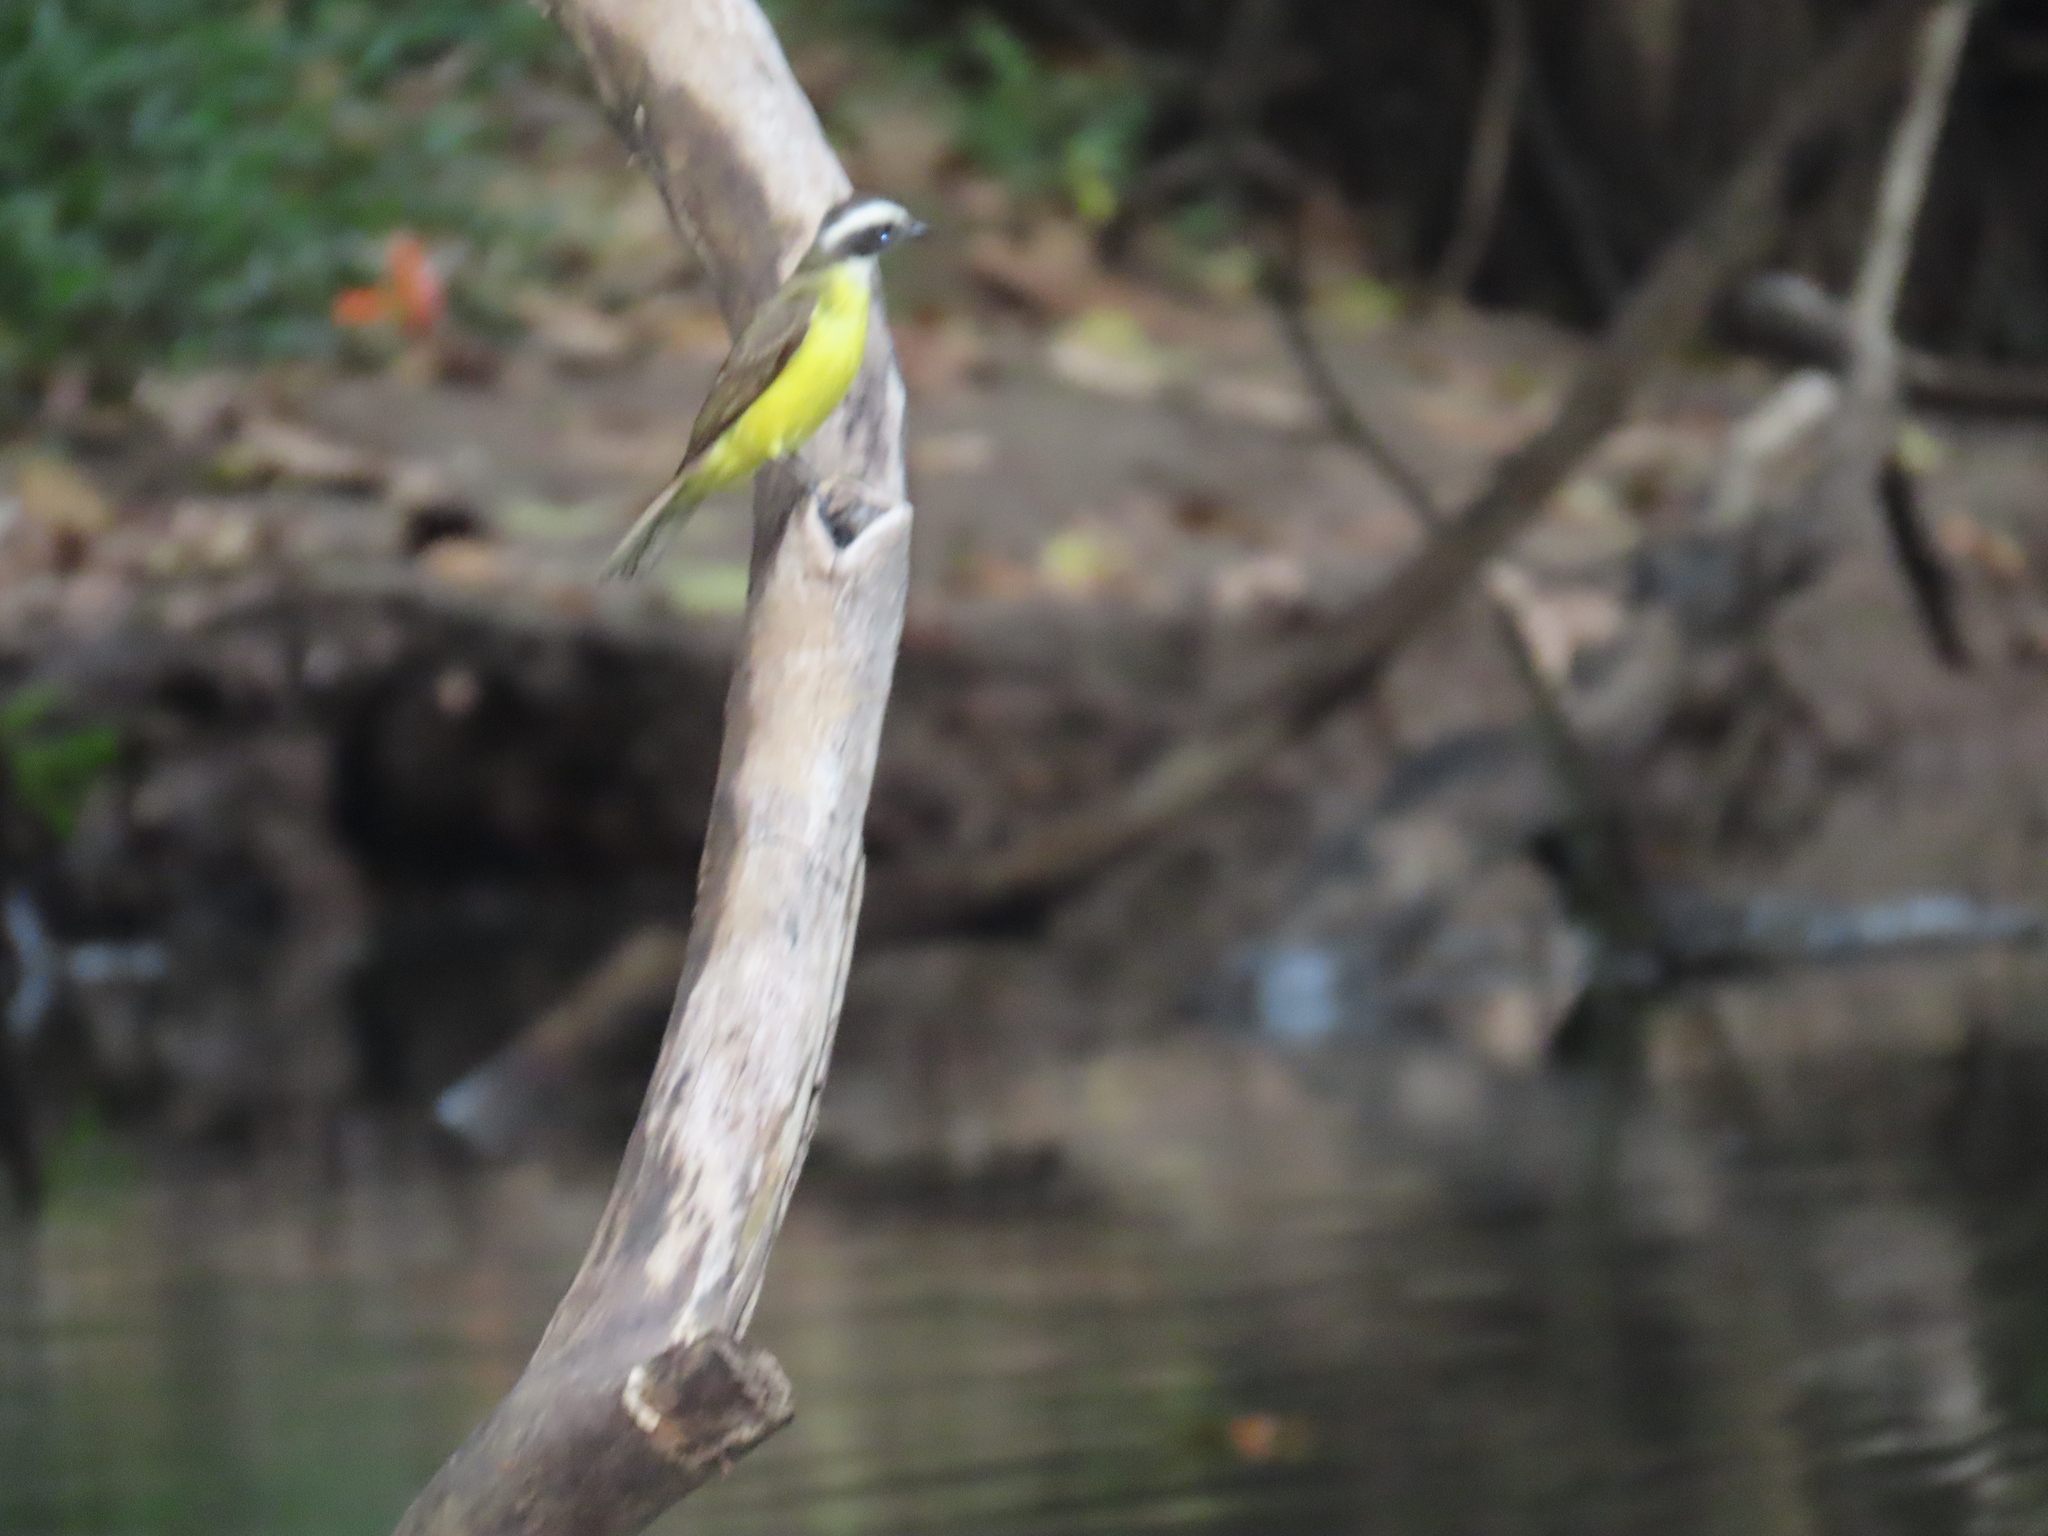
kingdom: Animalia
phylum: Chordata
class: Aves
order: Passeriformes
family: Tyrannidae
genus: Myiozetetes
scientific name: Myiozetetes similis
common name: Social flycatcher
